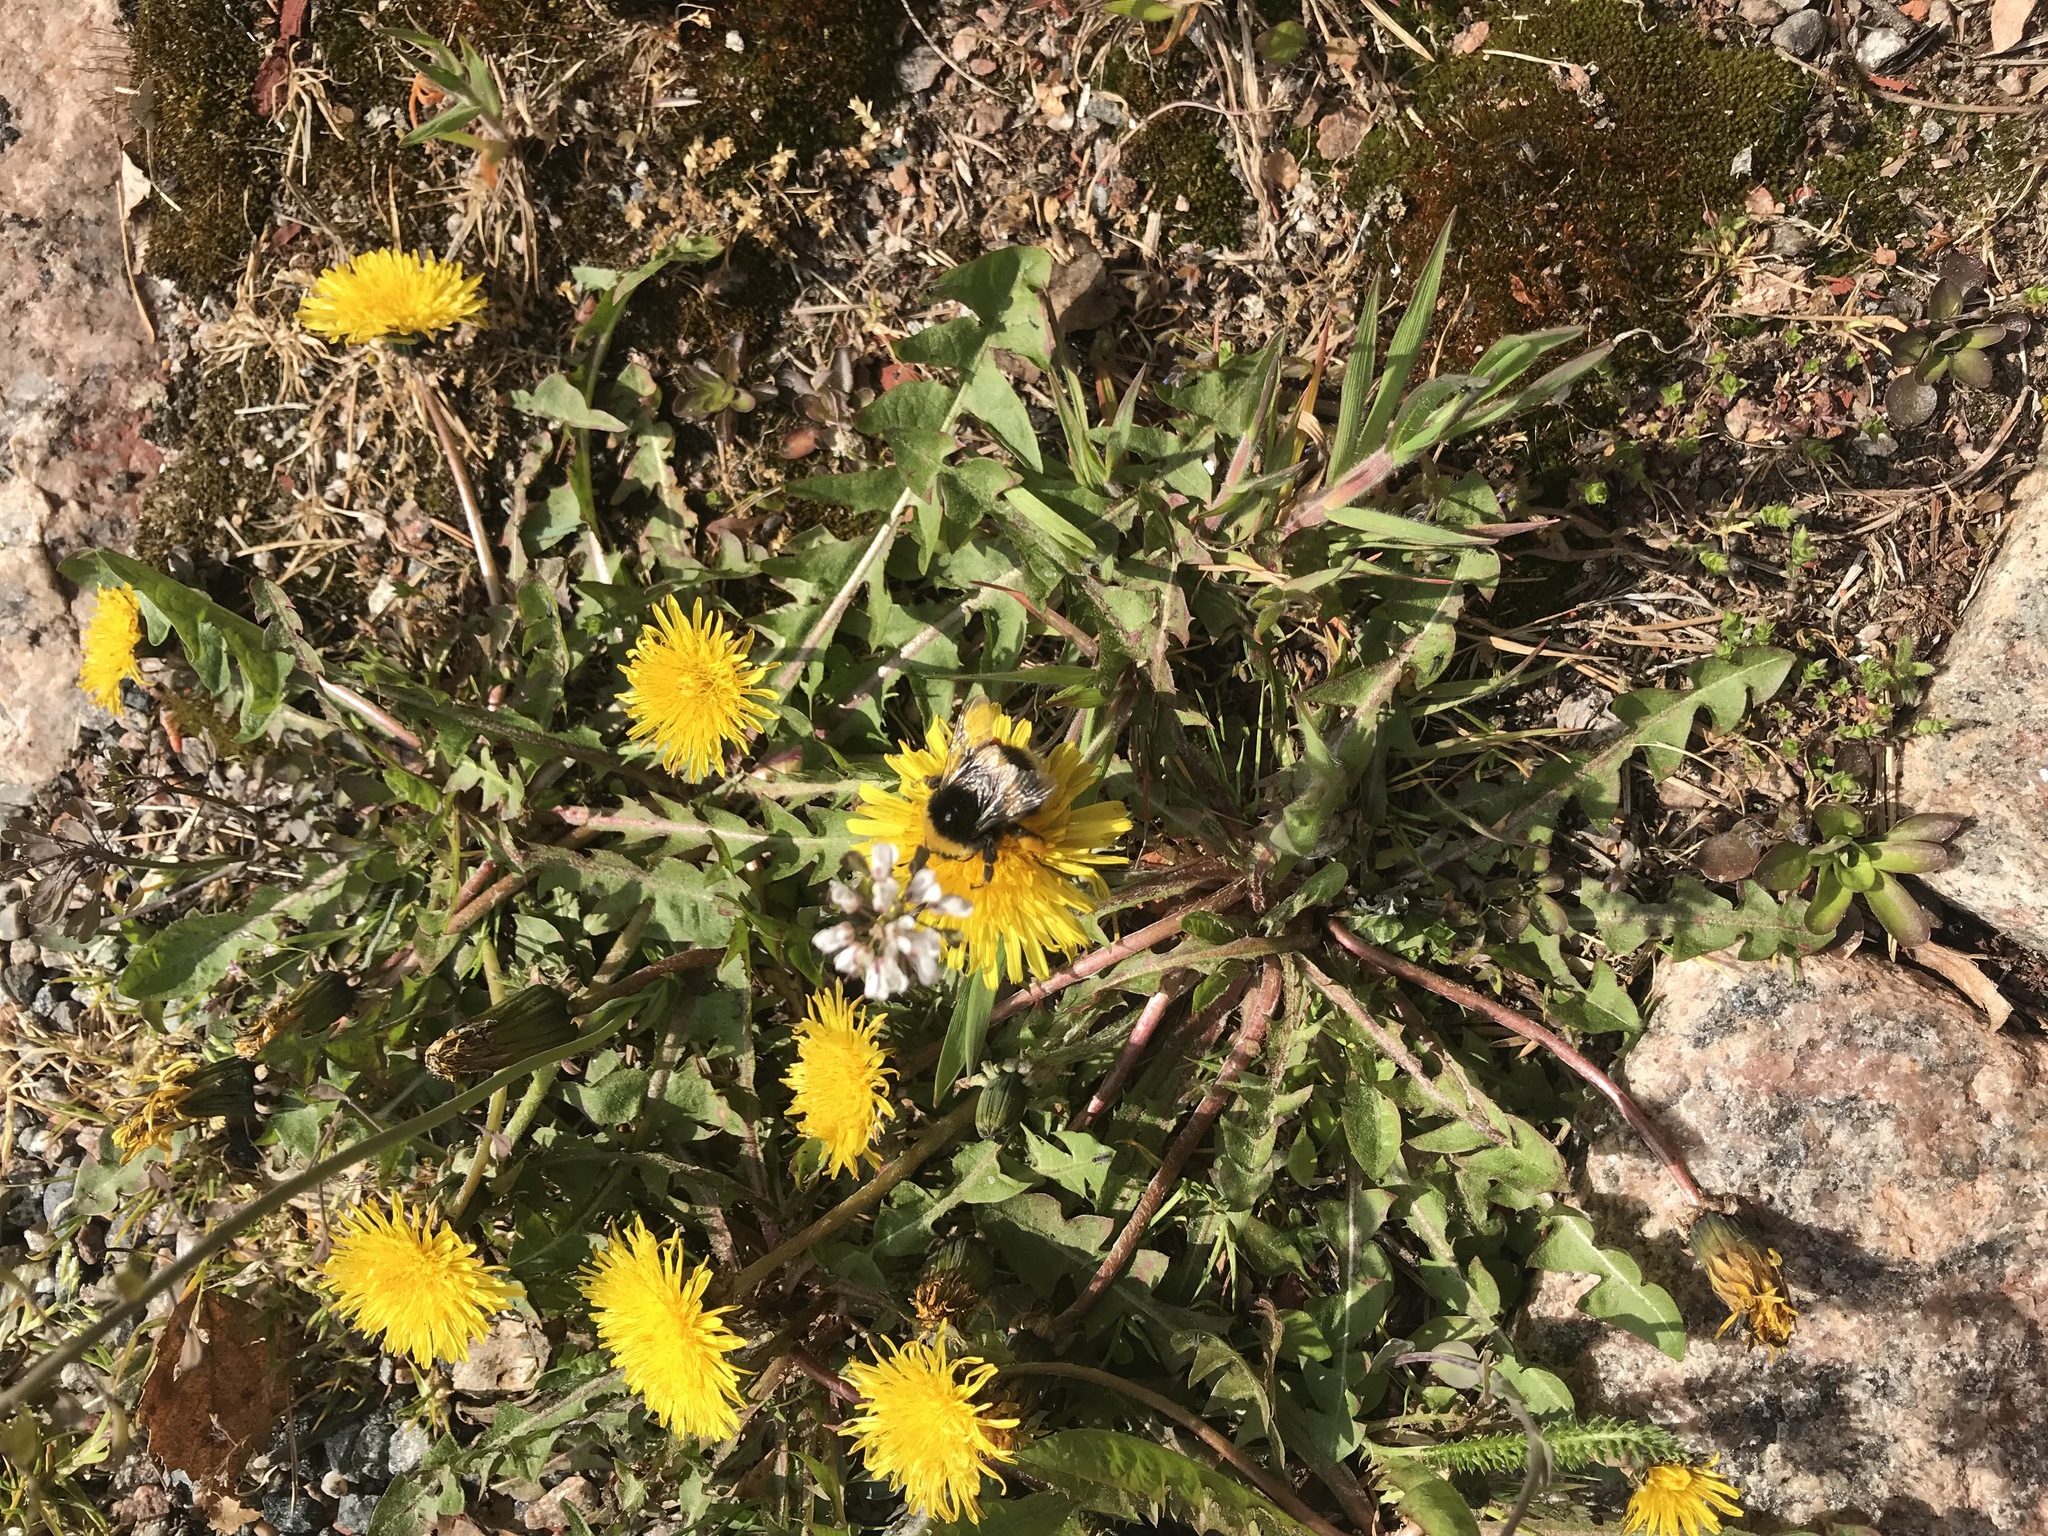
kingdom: Animalia
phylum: Arthropoda
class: Insecta
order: Hymenoptera
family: Apidae
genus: Bombus
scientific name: Bombus terrestris
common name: Buff-tailed bumblebee
